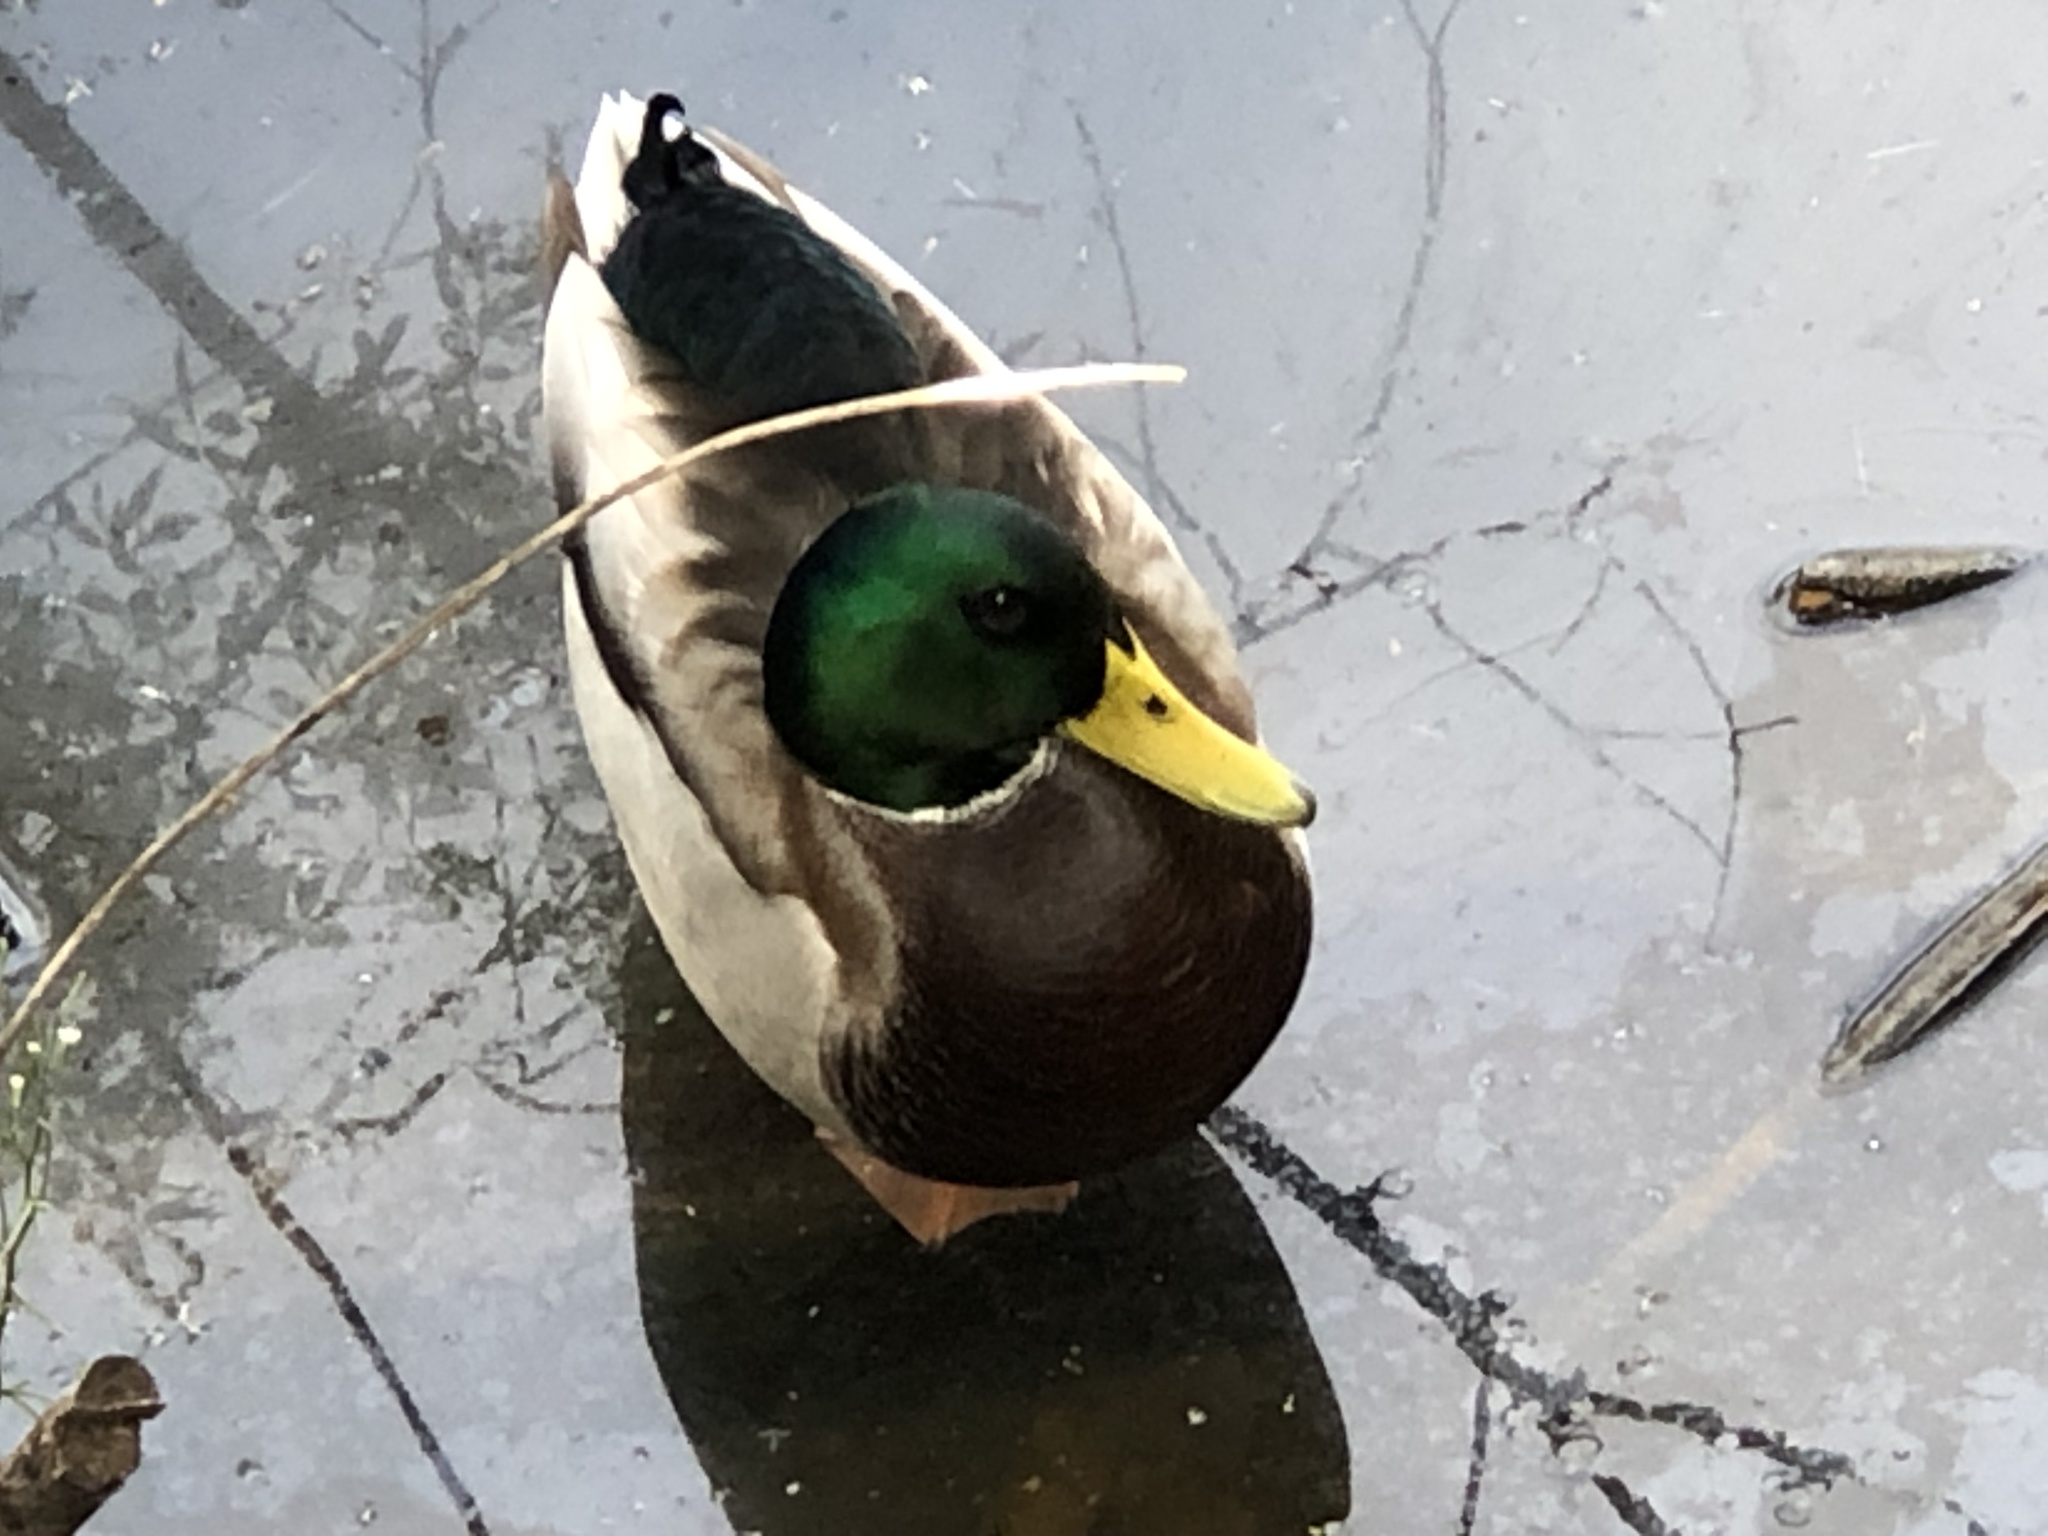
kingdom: Animalia
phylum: Chordata
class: Aves
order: Anseriformes
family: Anatidae
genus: Anas
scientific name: Anas platyrhynchos
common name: Mallard
